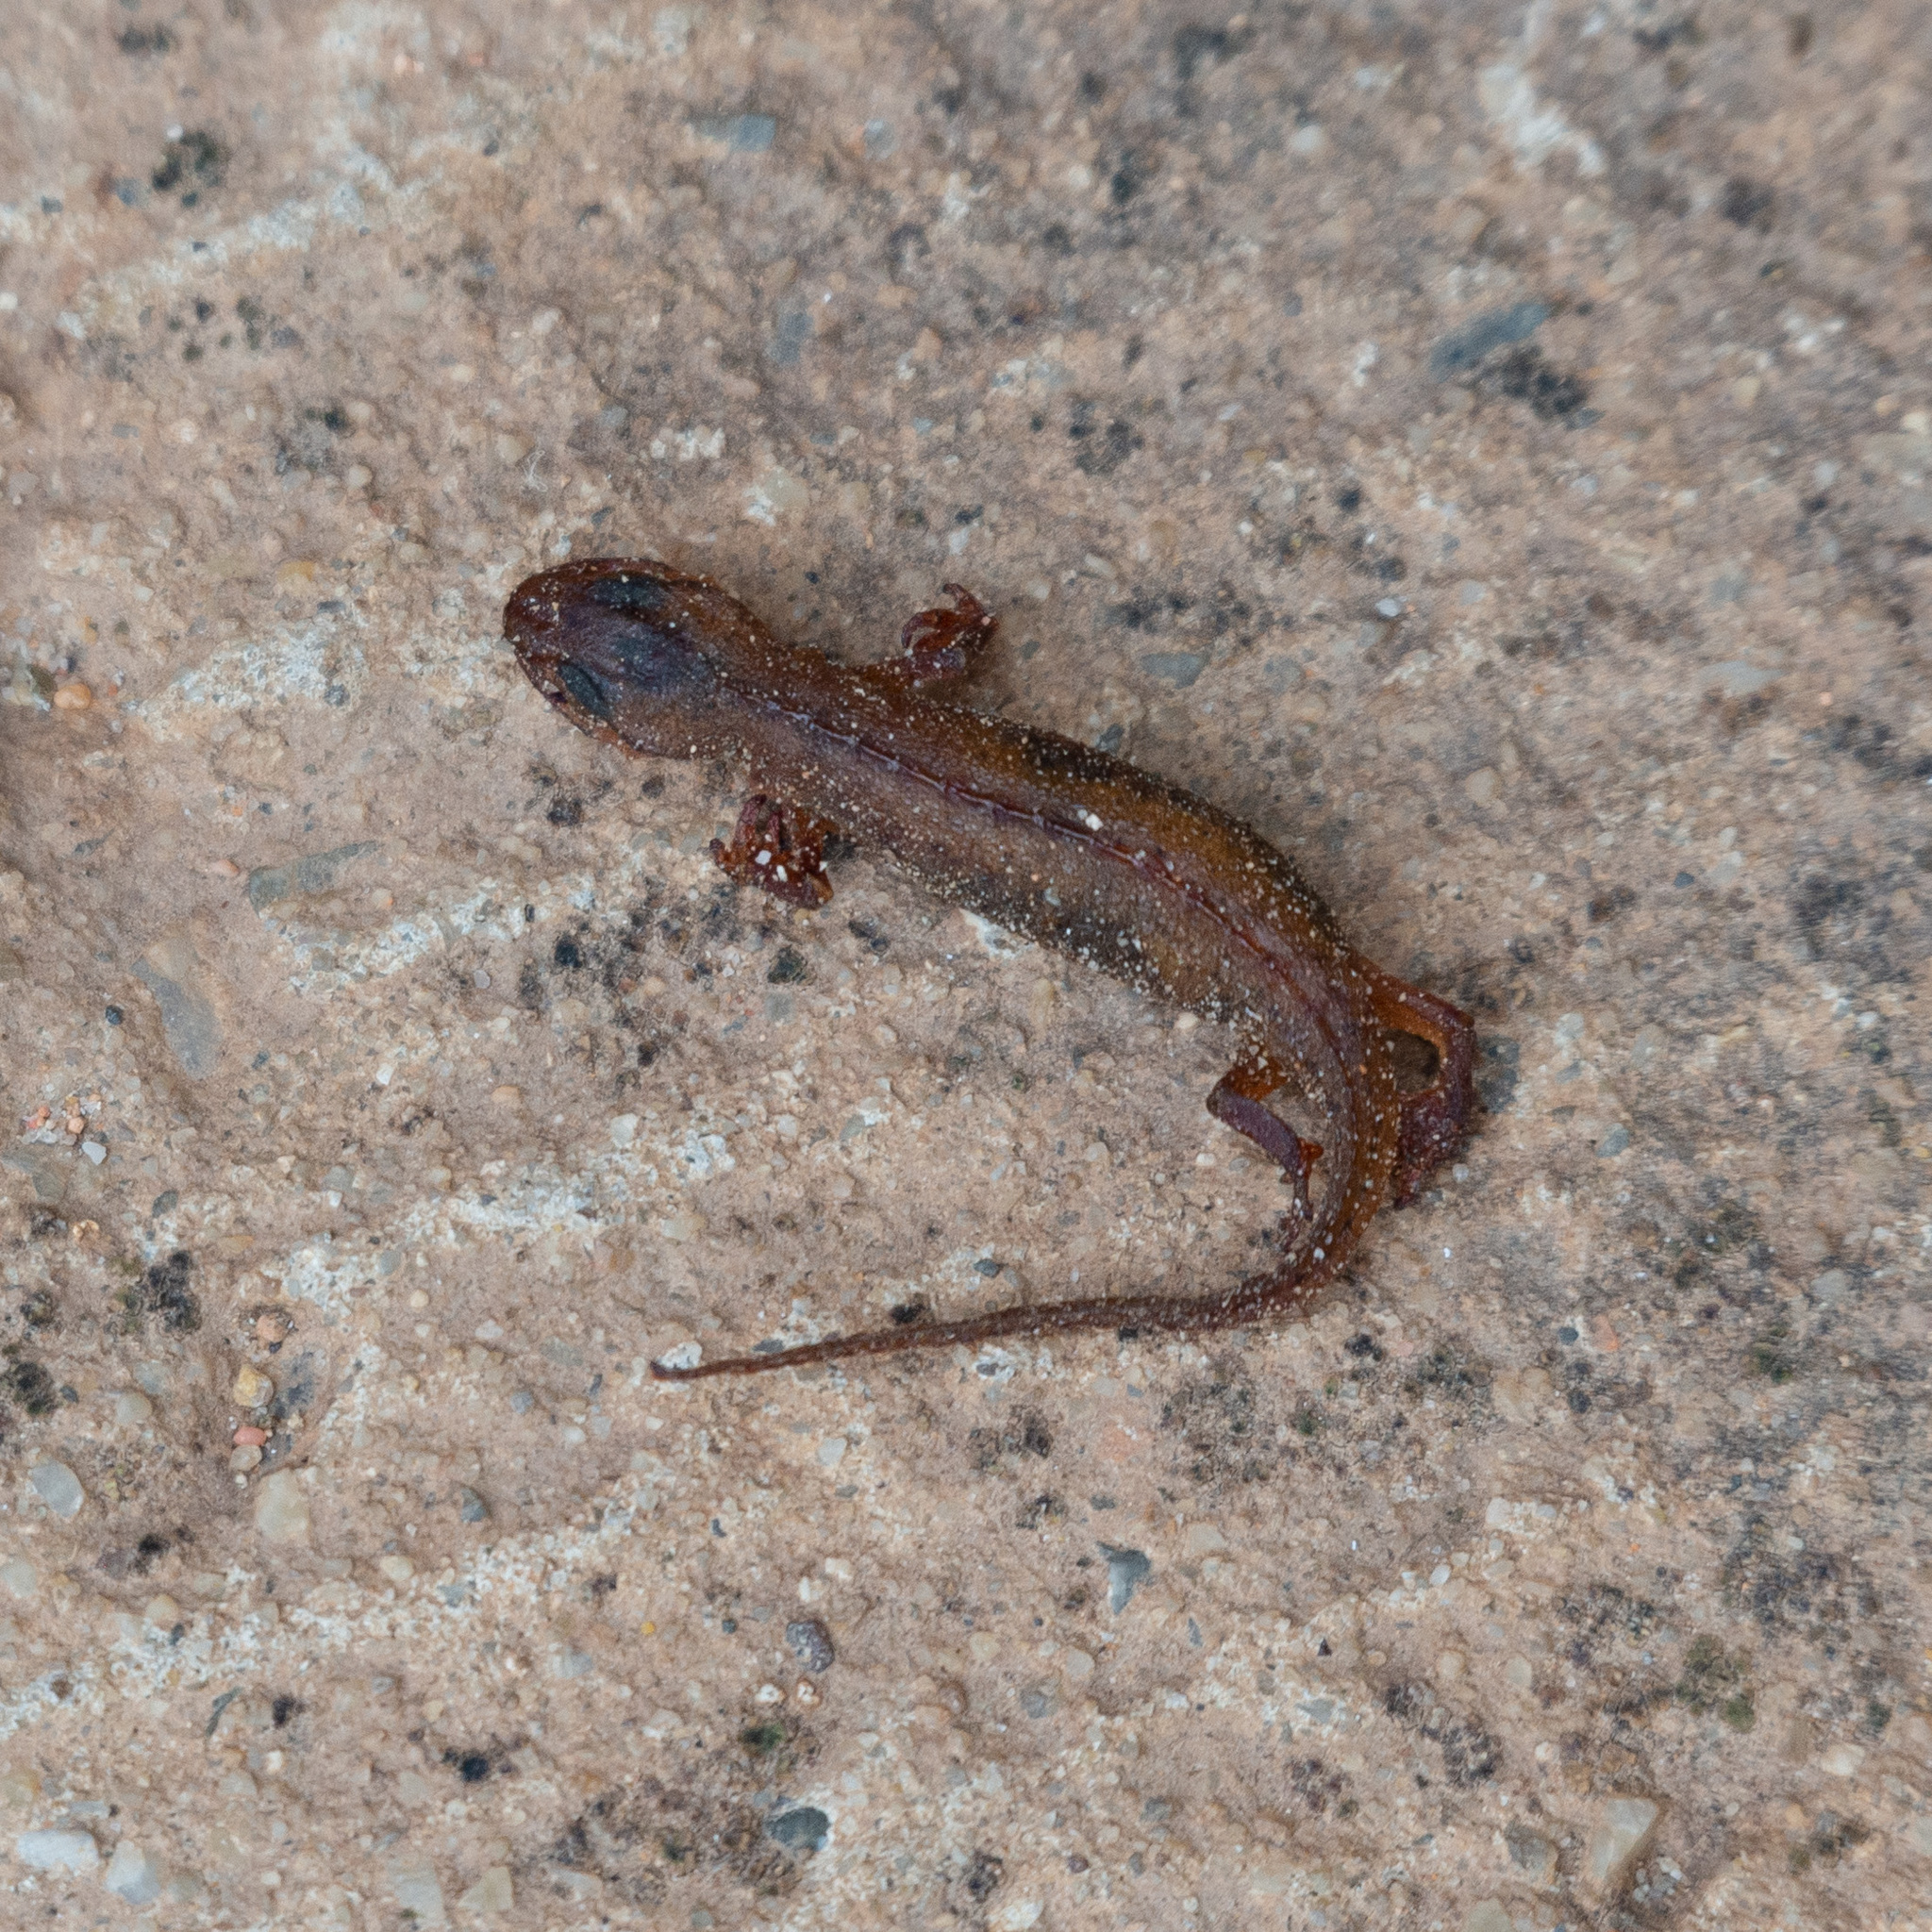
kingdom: Animalia
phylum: Chordata
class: Amphibia
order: Caudata
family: Salamandridae
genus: Lissotriton
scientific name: Lissotriton helveticus
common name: Palmate newt
